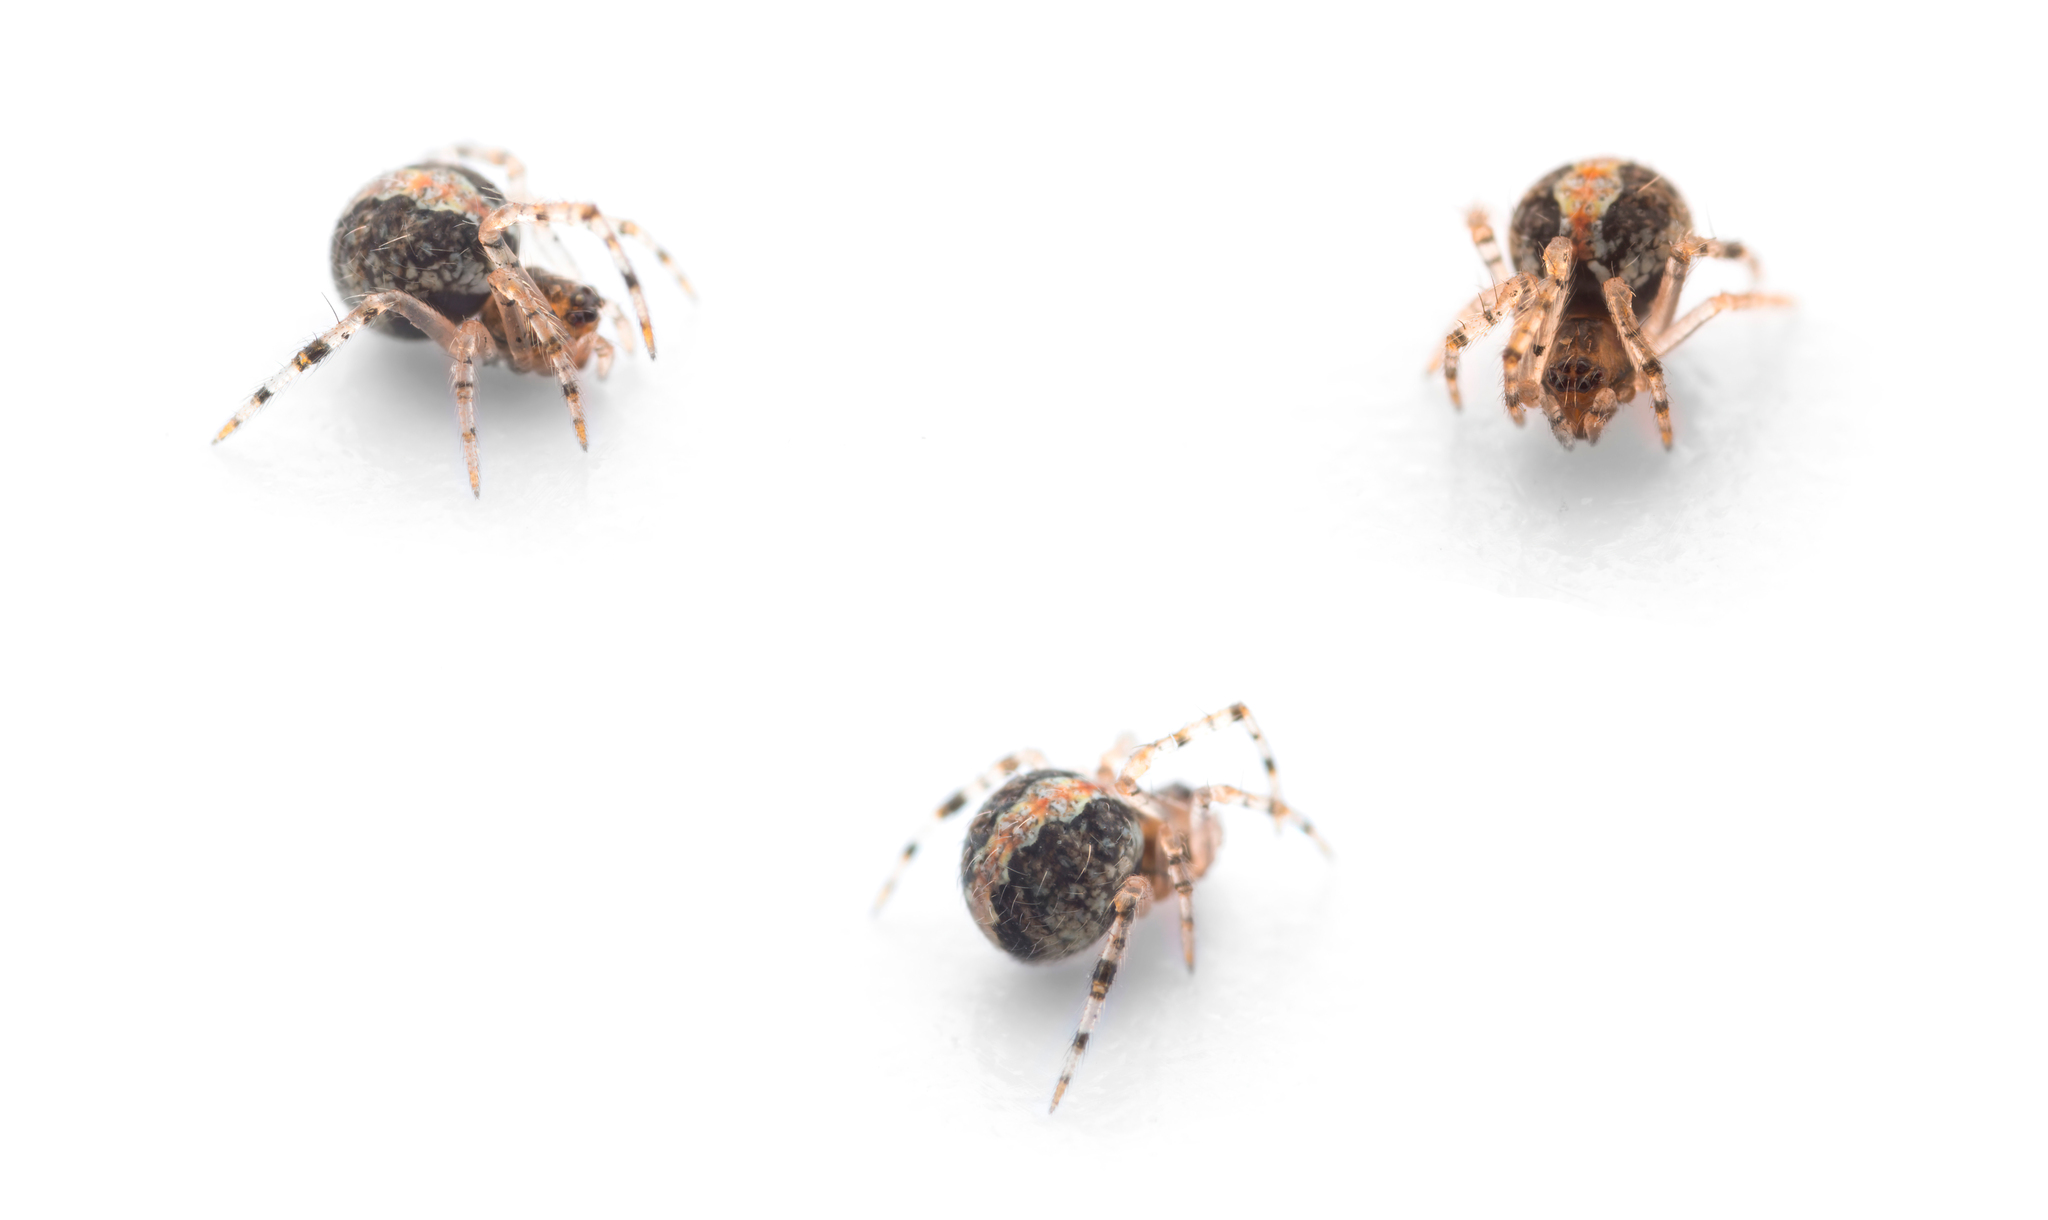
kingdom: Animalia
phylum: Arthropoda
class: Arachnida
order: Araneae
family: Theridiidae
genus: Theridion
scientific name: Theridion pinastri
